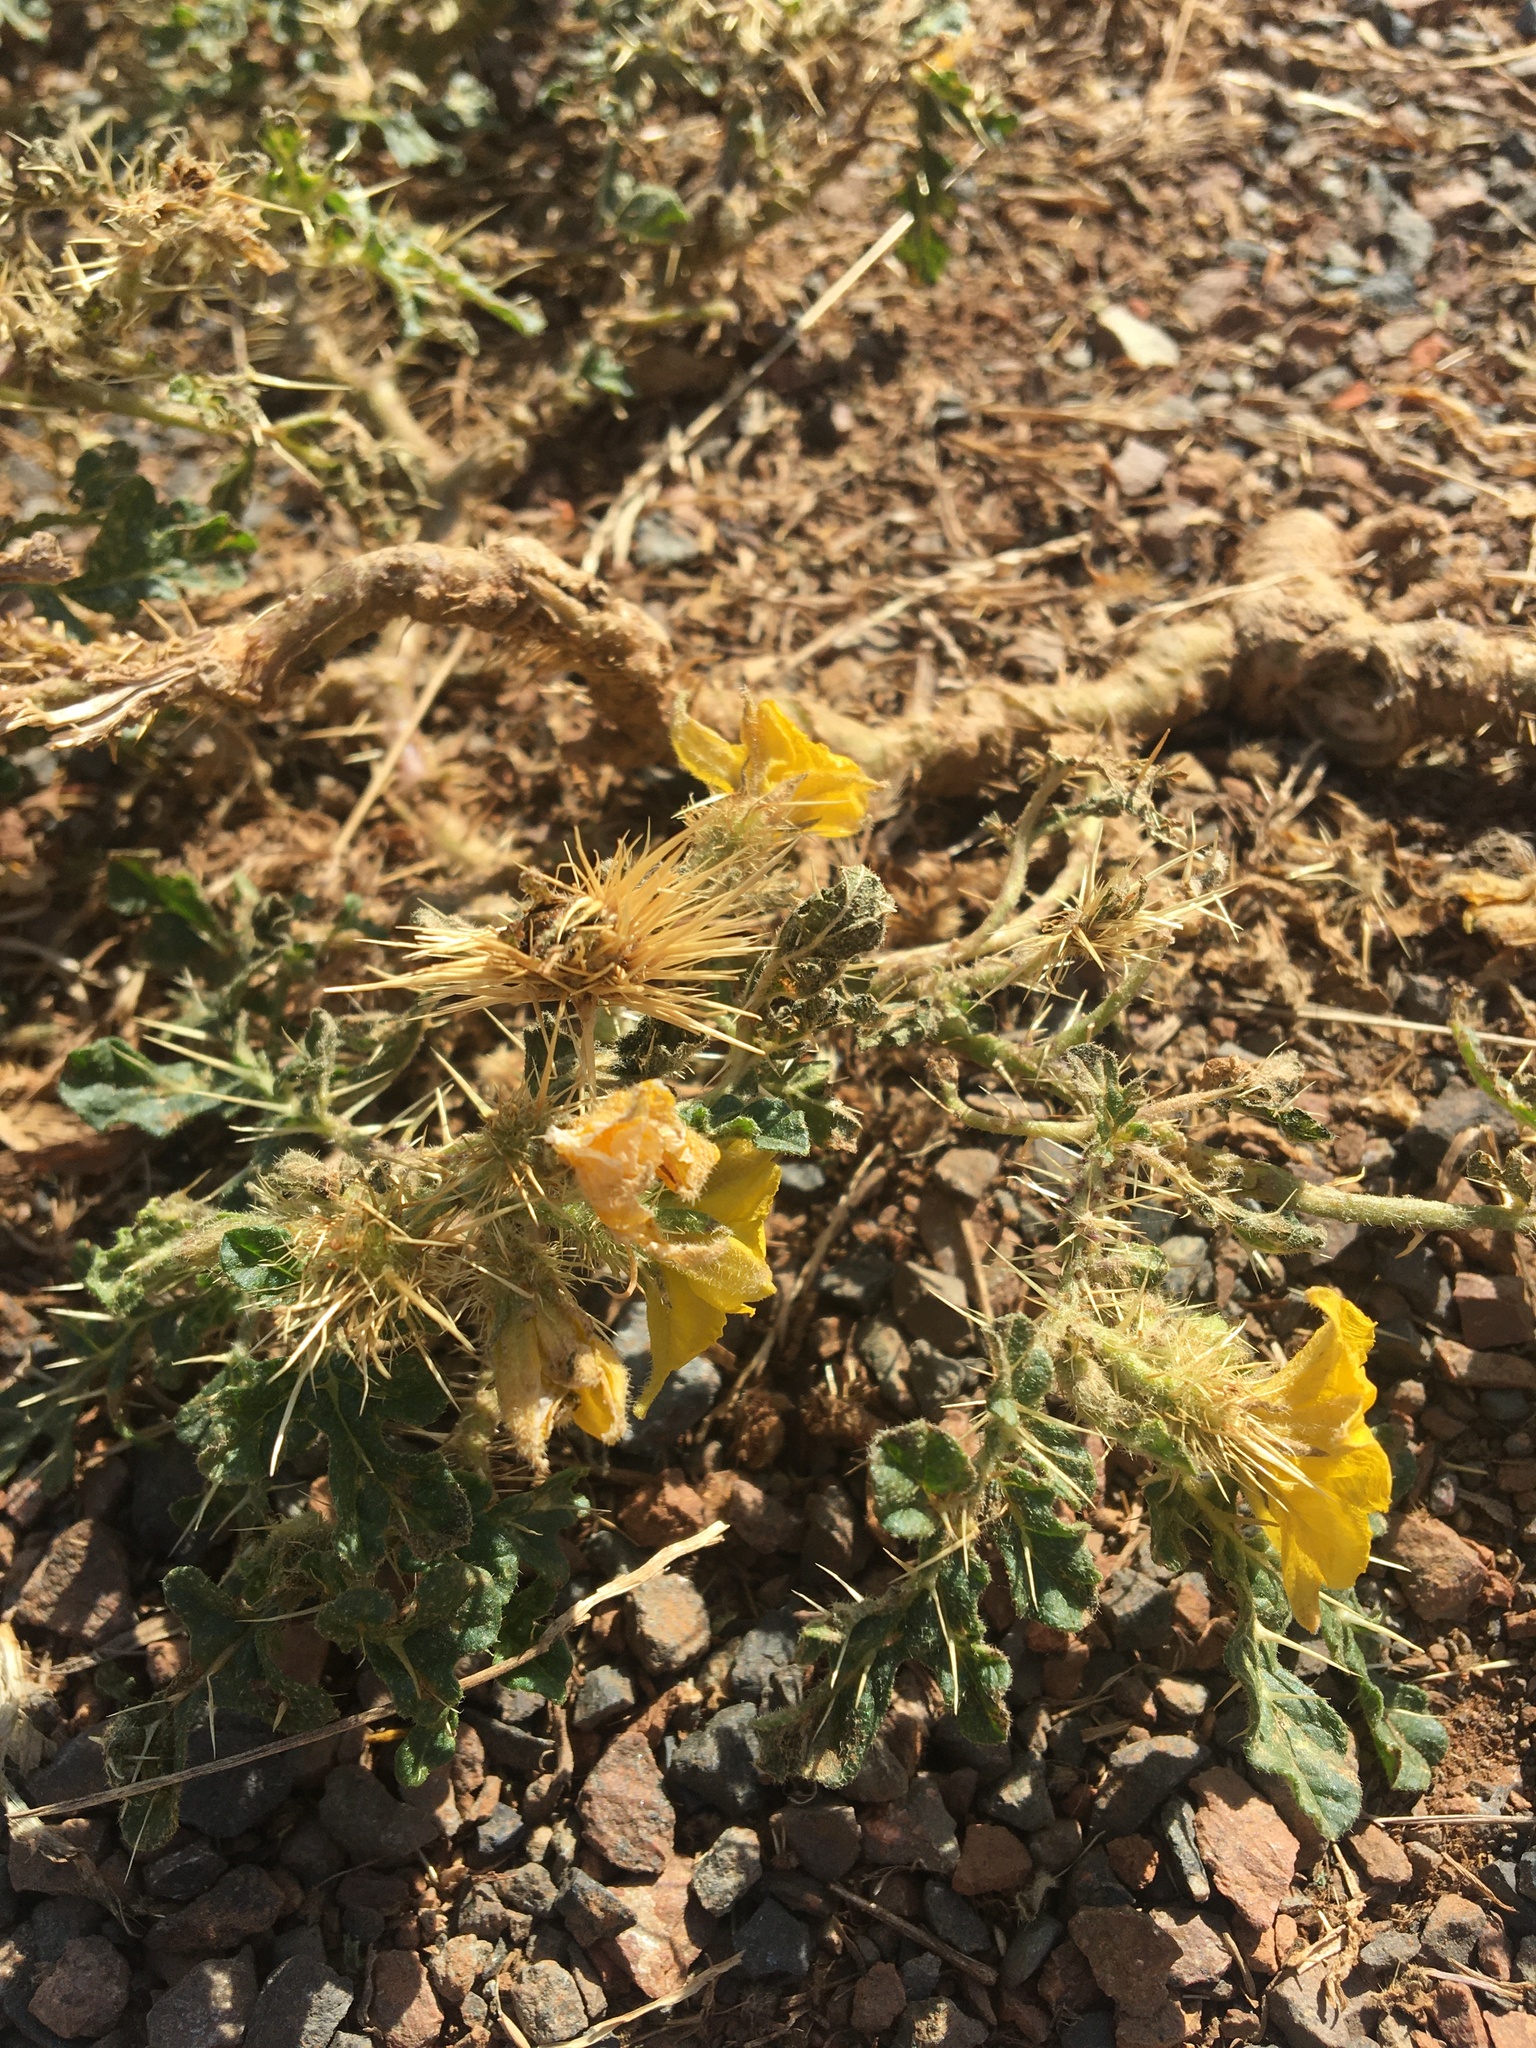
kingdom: Plantae
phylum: Tracheophyta
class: Magnoliopsida
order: Solanales
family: Solanaceae
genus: Solanum
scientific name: Solanum angustifolium
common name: Buffalobur nightshade
